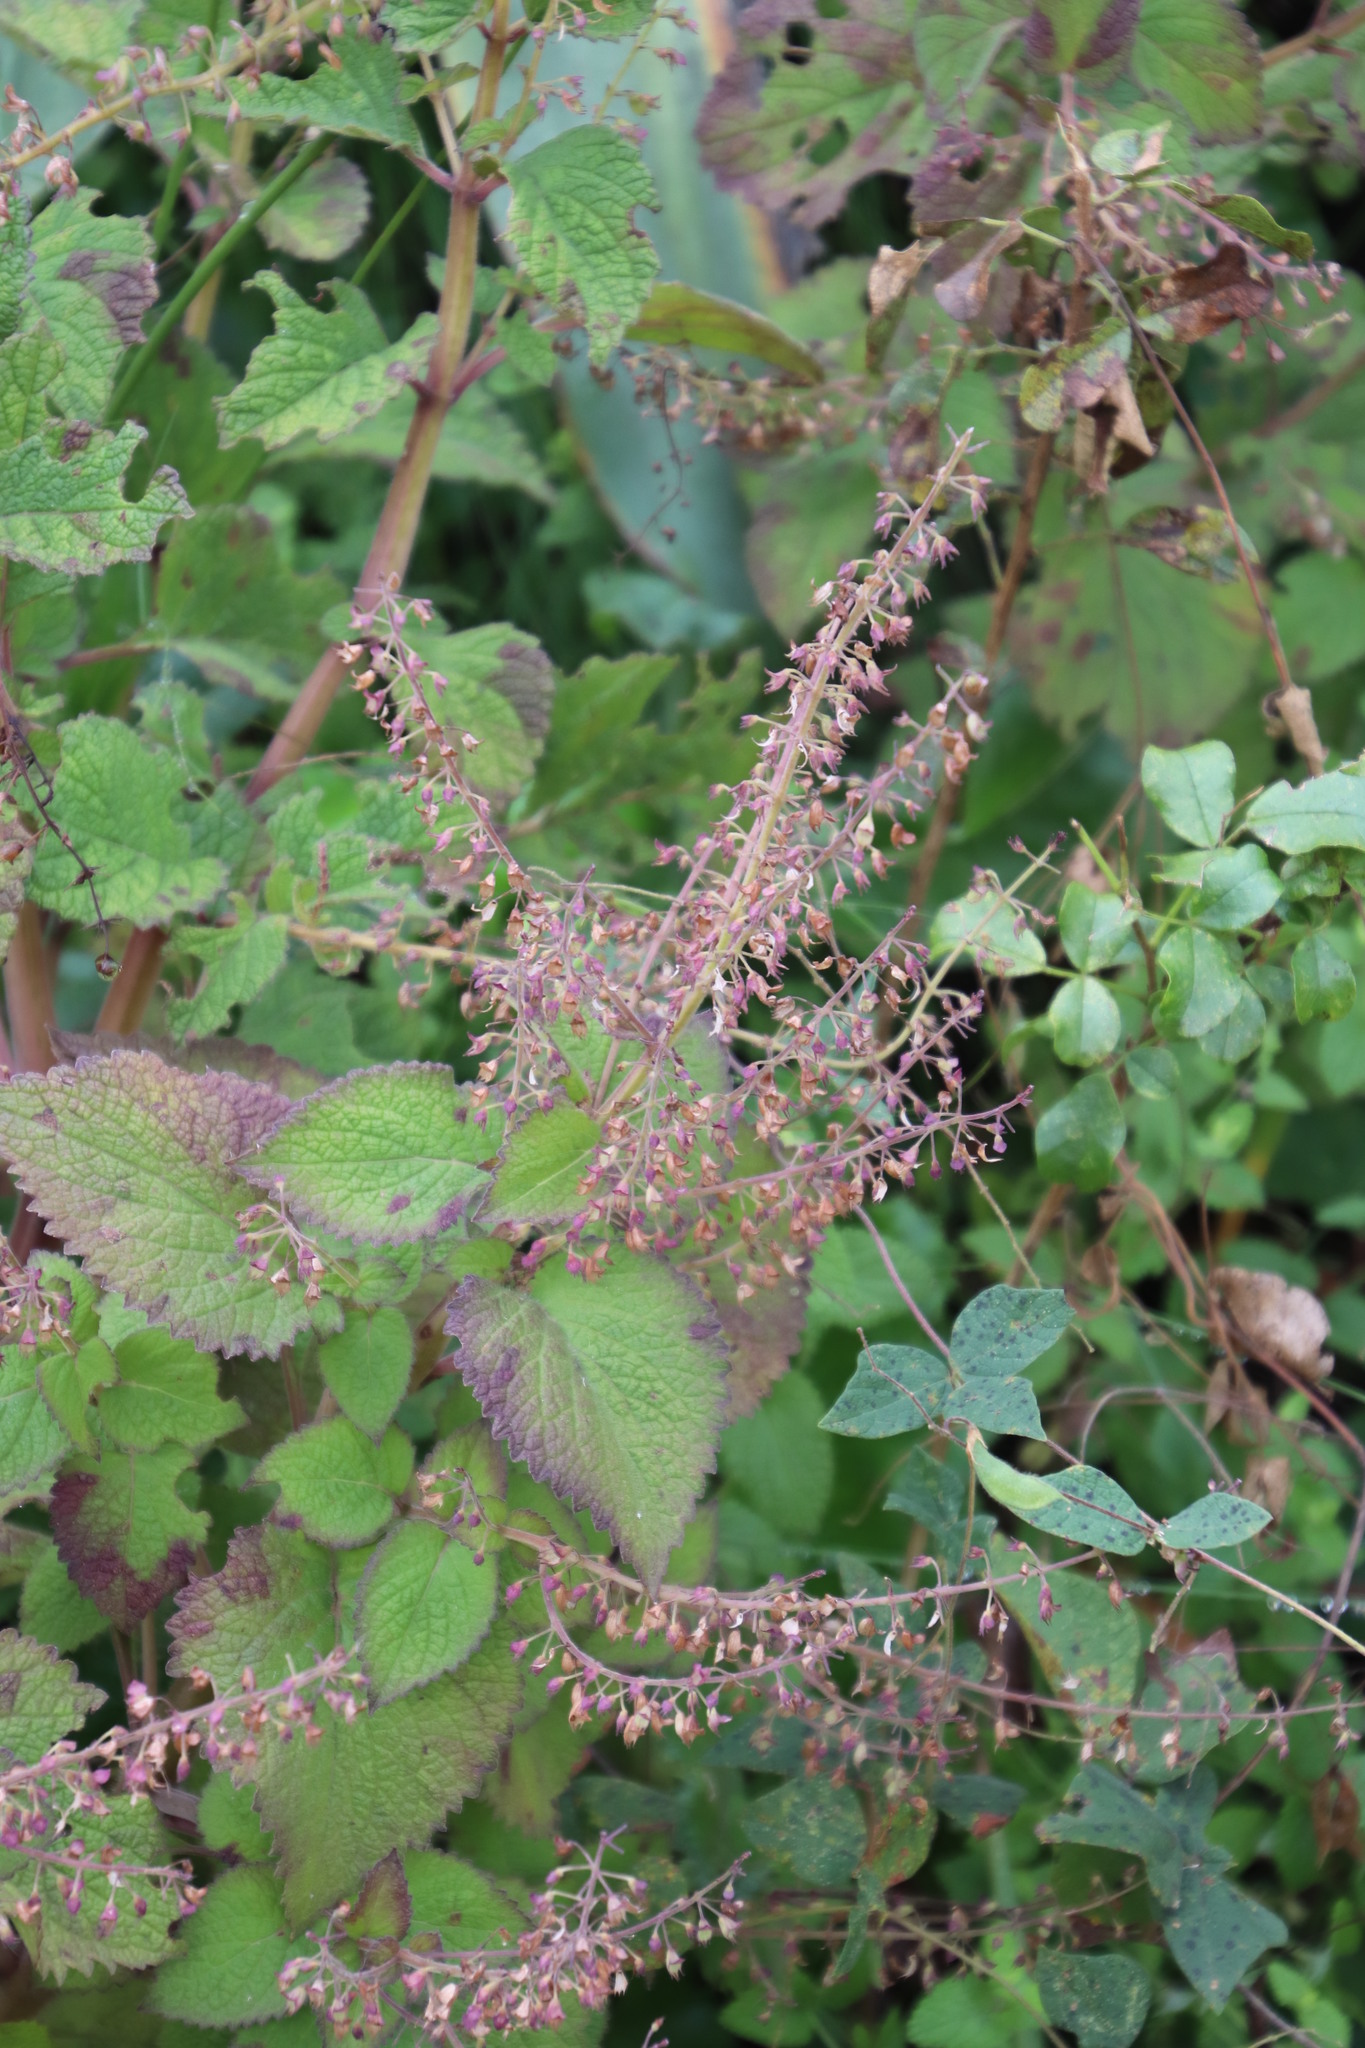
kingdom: Plantae
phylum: Tracheophyta
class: Magnoliopsida
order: Lamiales
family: Lamiaceae
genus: Plectranthus
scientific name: Plectranthus grallatus
